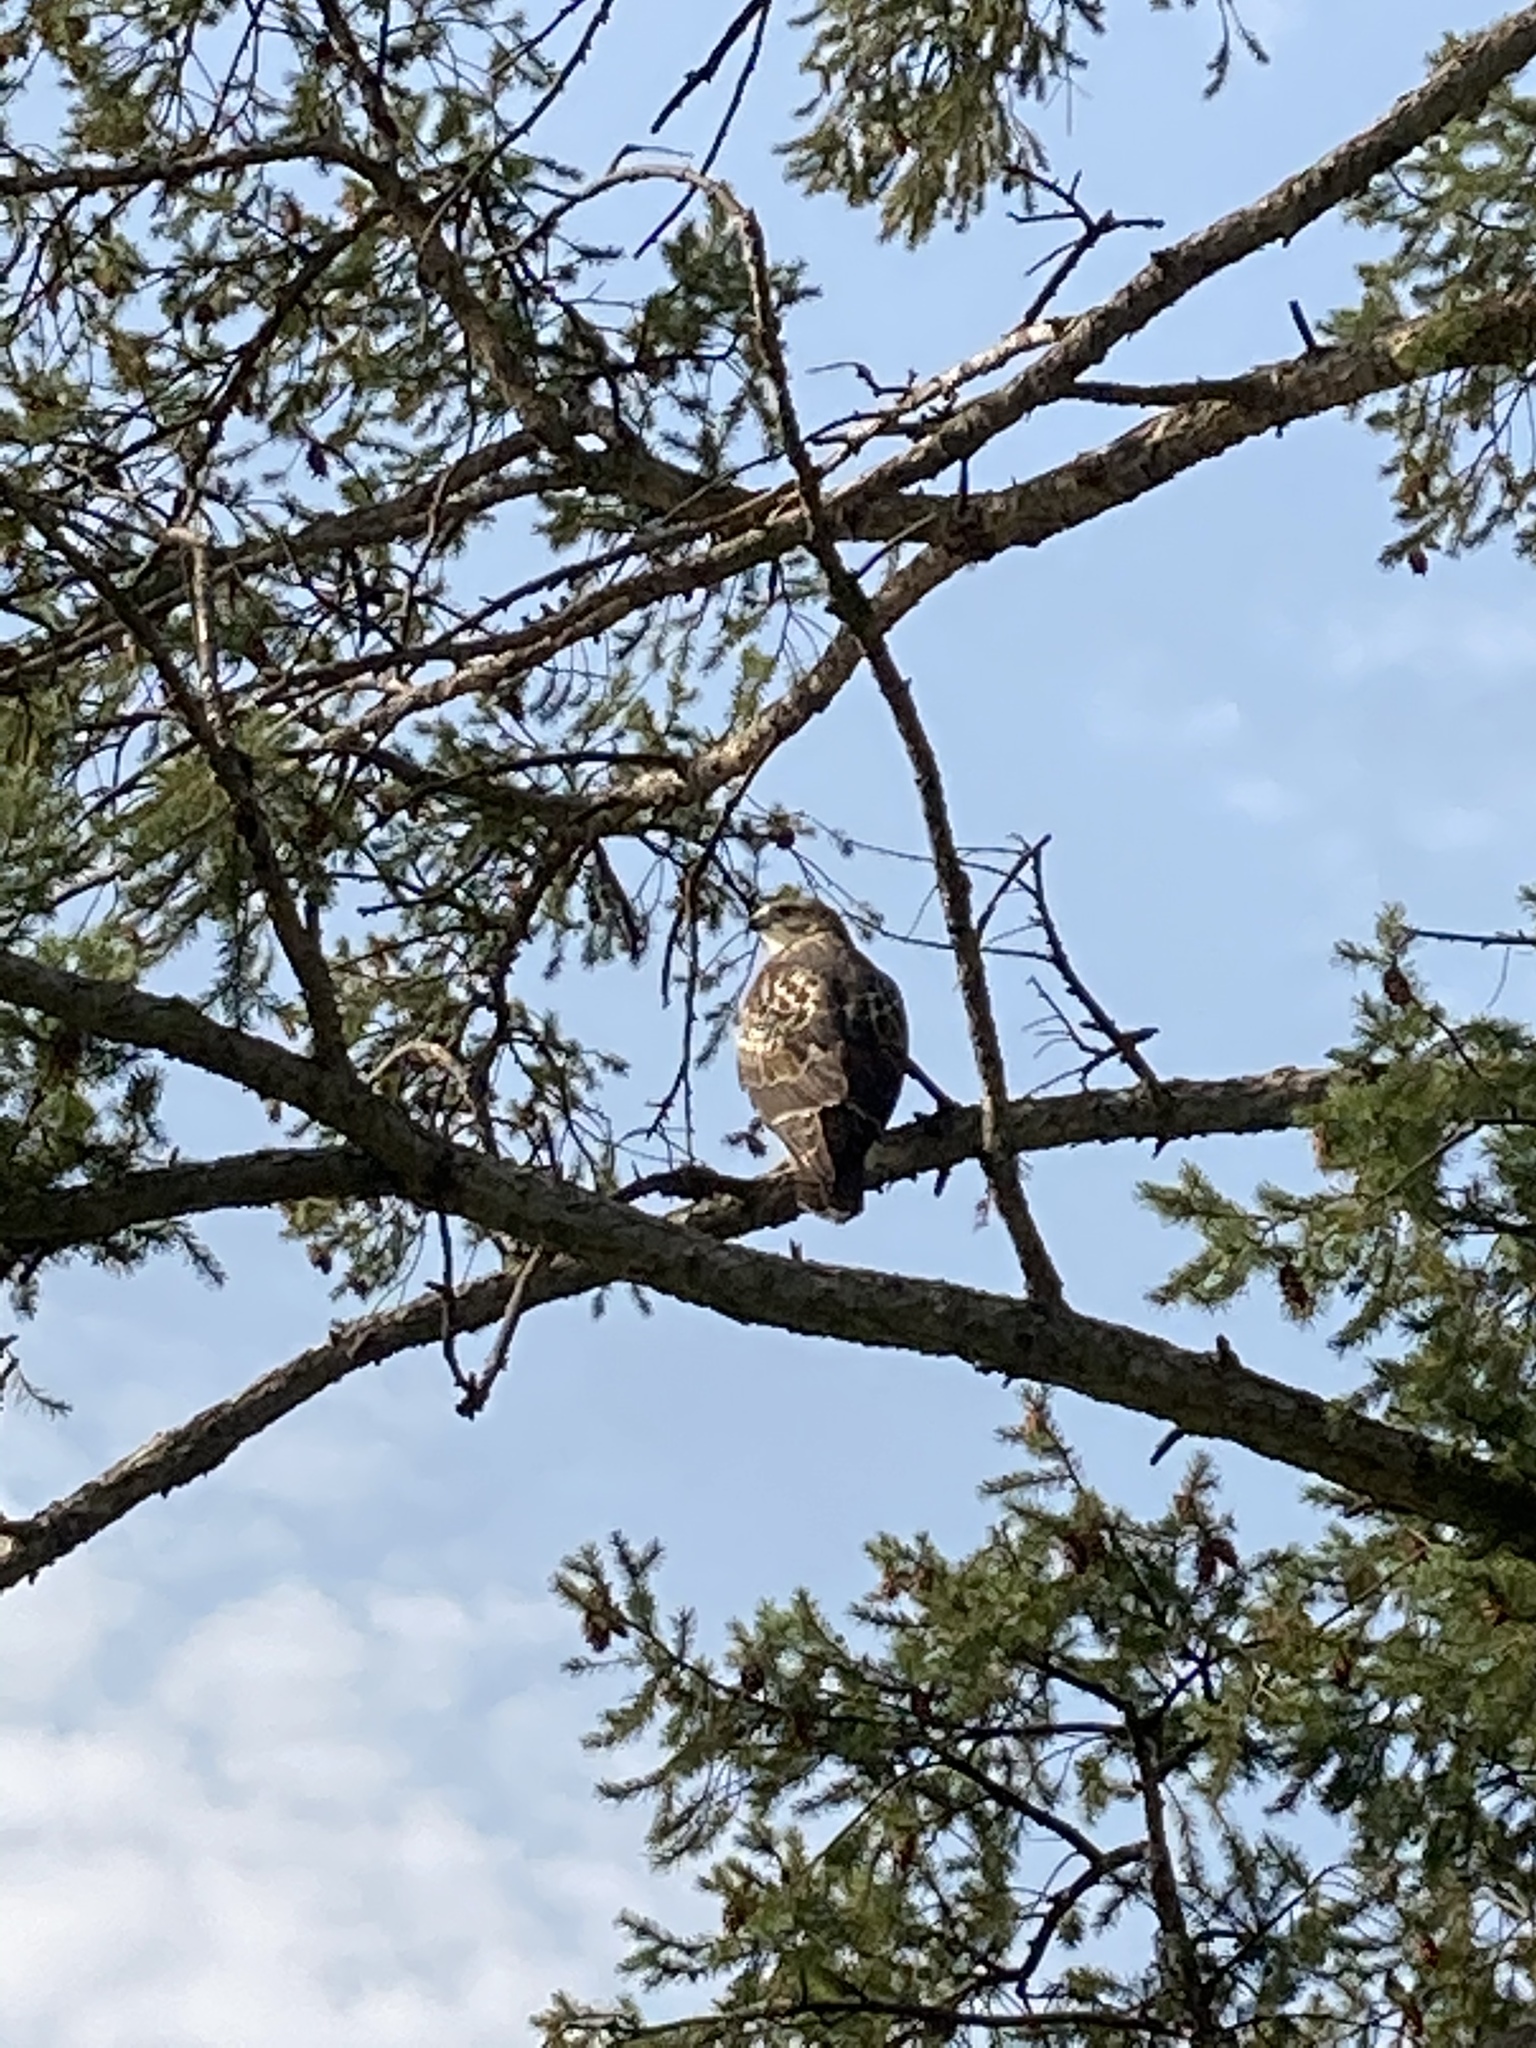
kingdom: Animalia
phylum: Chordata
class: Aves
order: Accipitriformes
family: Accipitridae
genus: Buteo
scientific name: Buteo jamaicensis
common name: Red-tailed hawk
